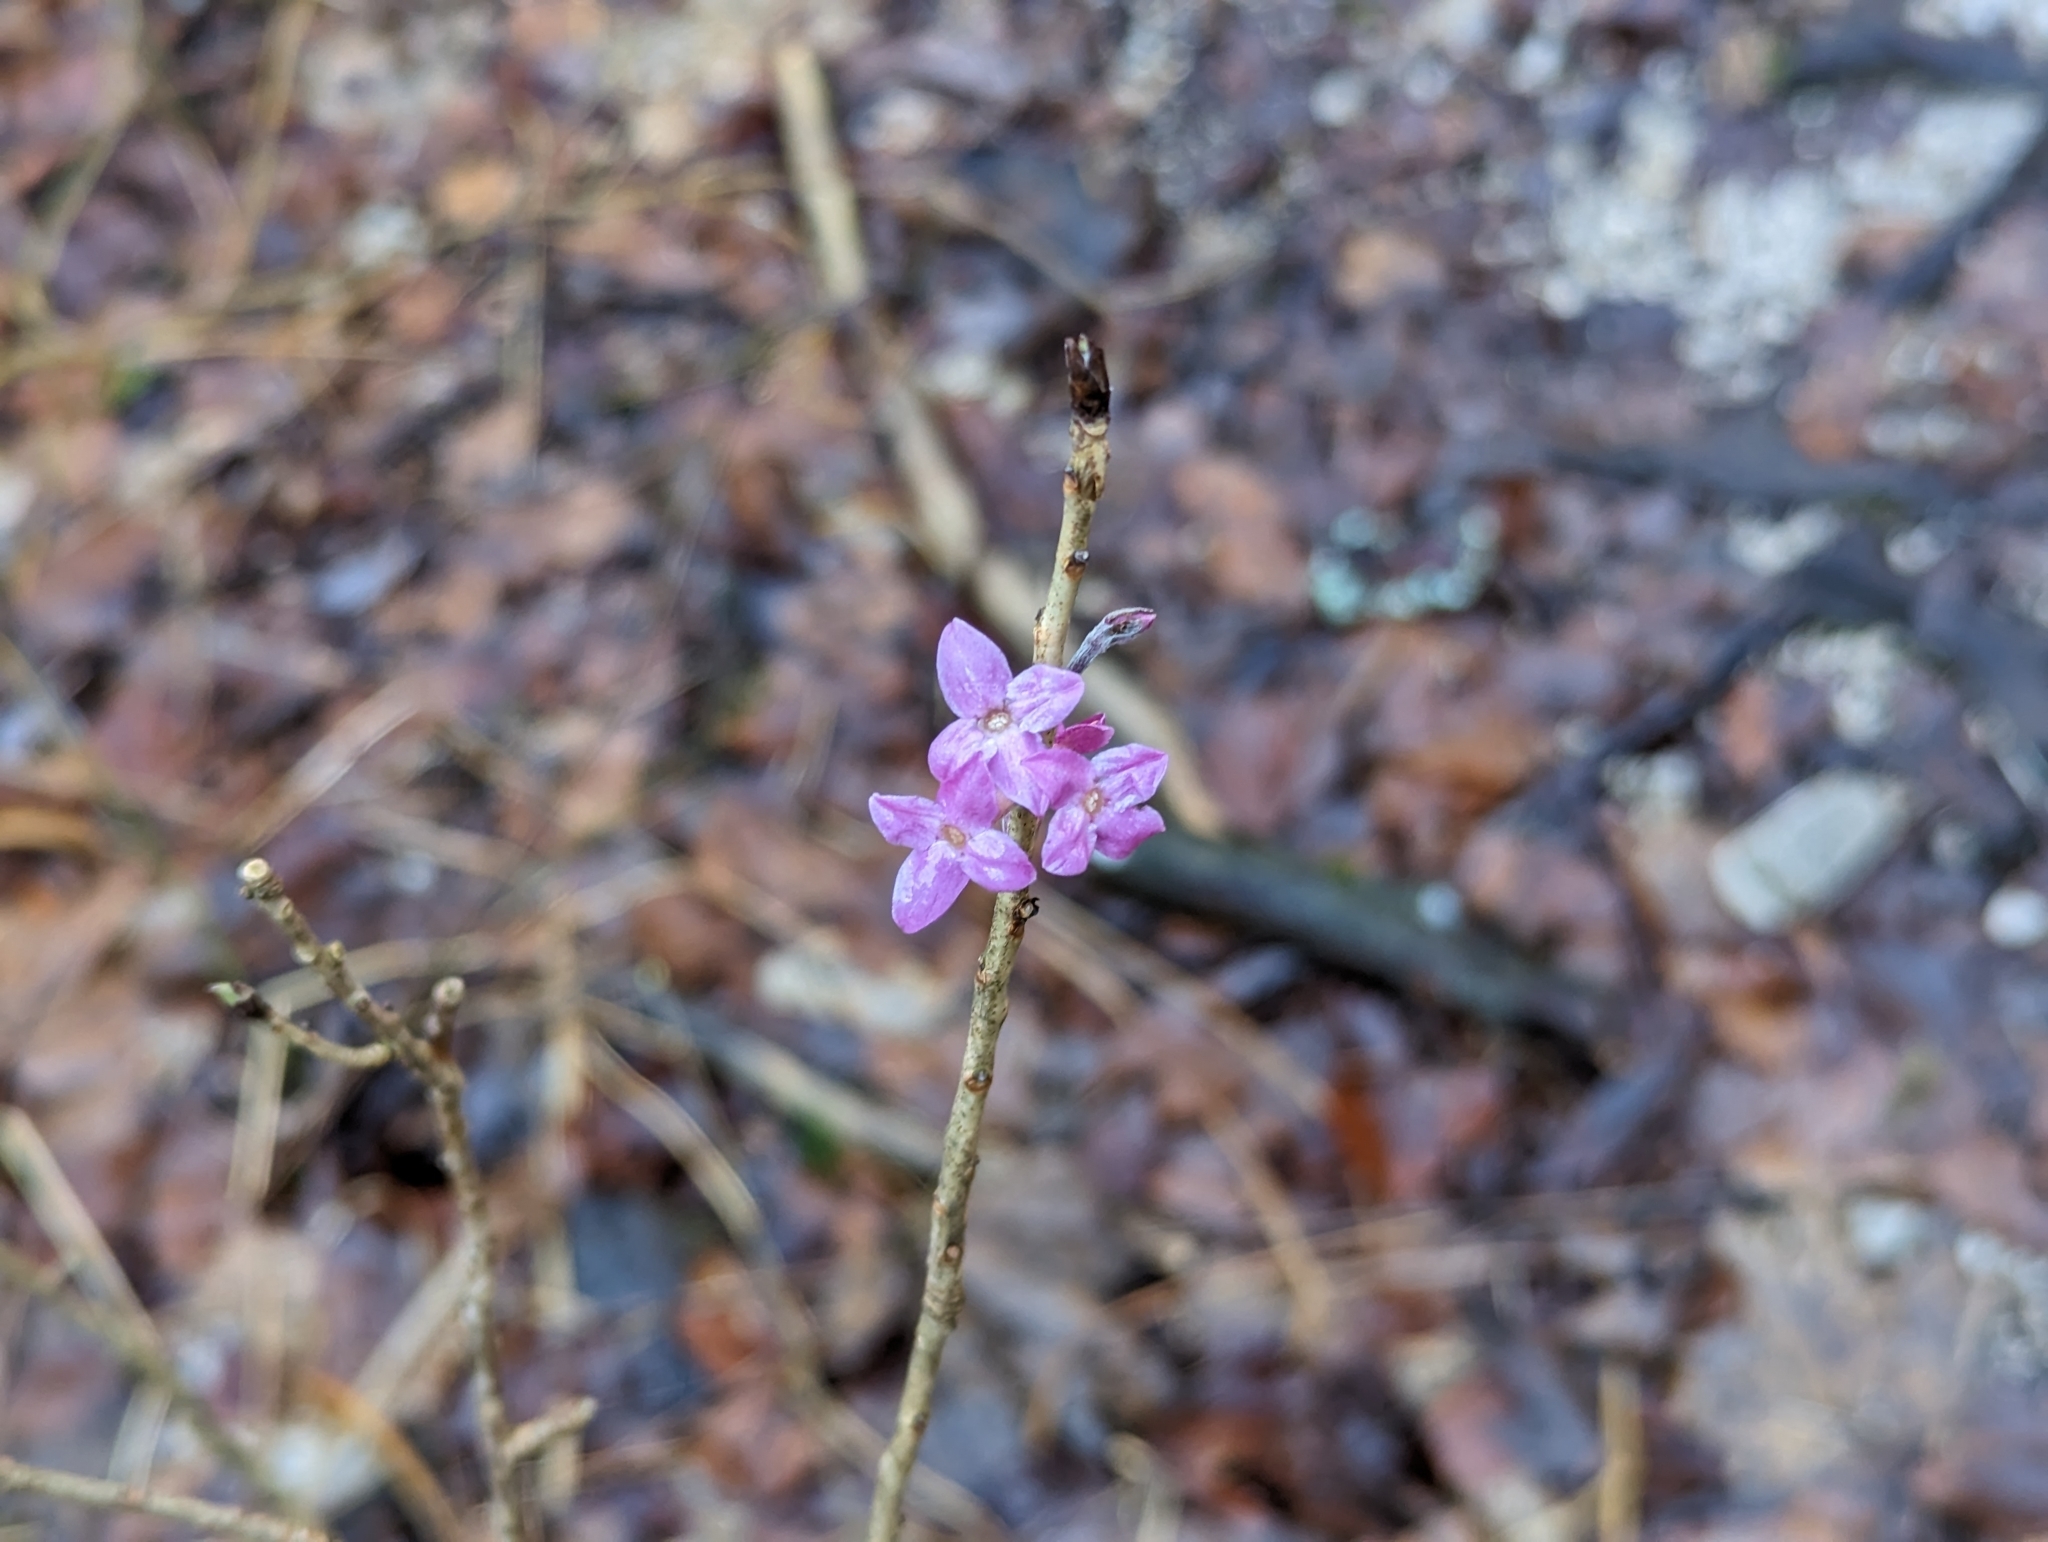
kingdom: Plantae
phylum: Tracheophyta
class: Magnoliopsida
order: Malvales
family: Thymelaeaceae
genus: Daphne
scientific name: Daphne mezereum
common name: Mezereon
